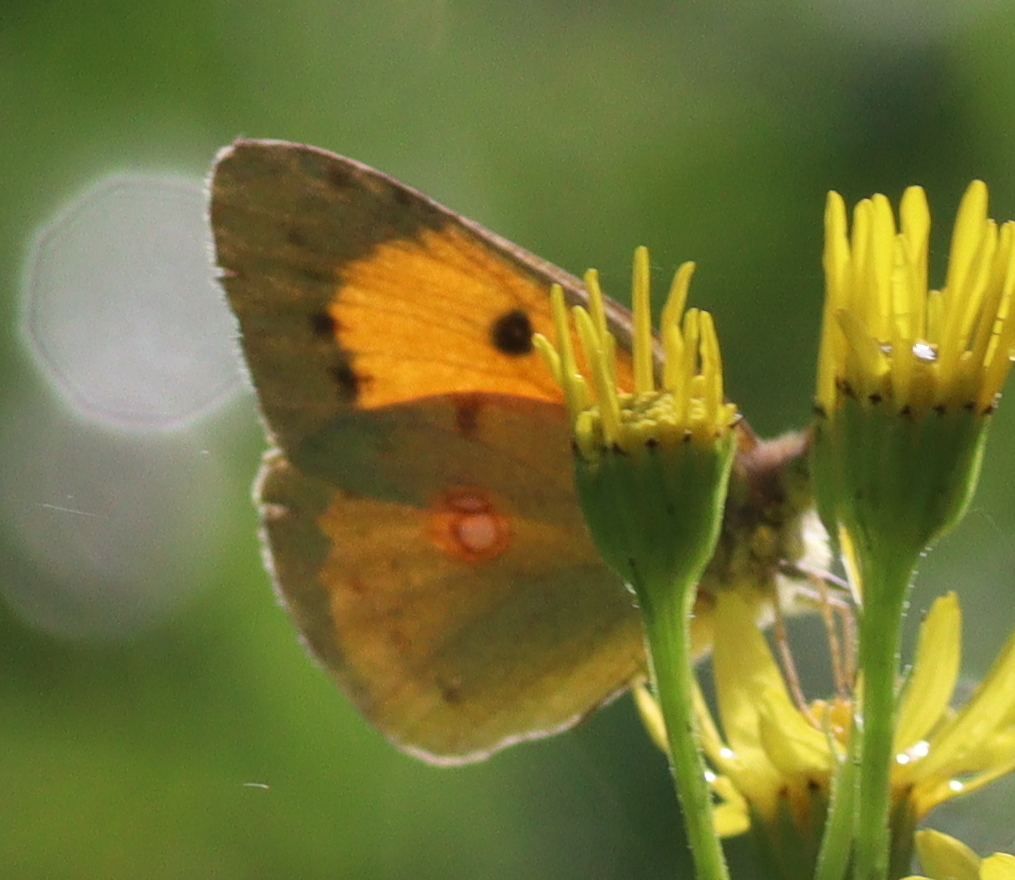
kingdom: Animalia
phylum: Arthropoda
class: Insecta
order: Lepidoptera
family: Pieridae
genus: Colias
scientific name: Colias croceus
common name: Clouded yellow
